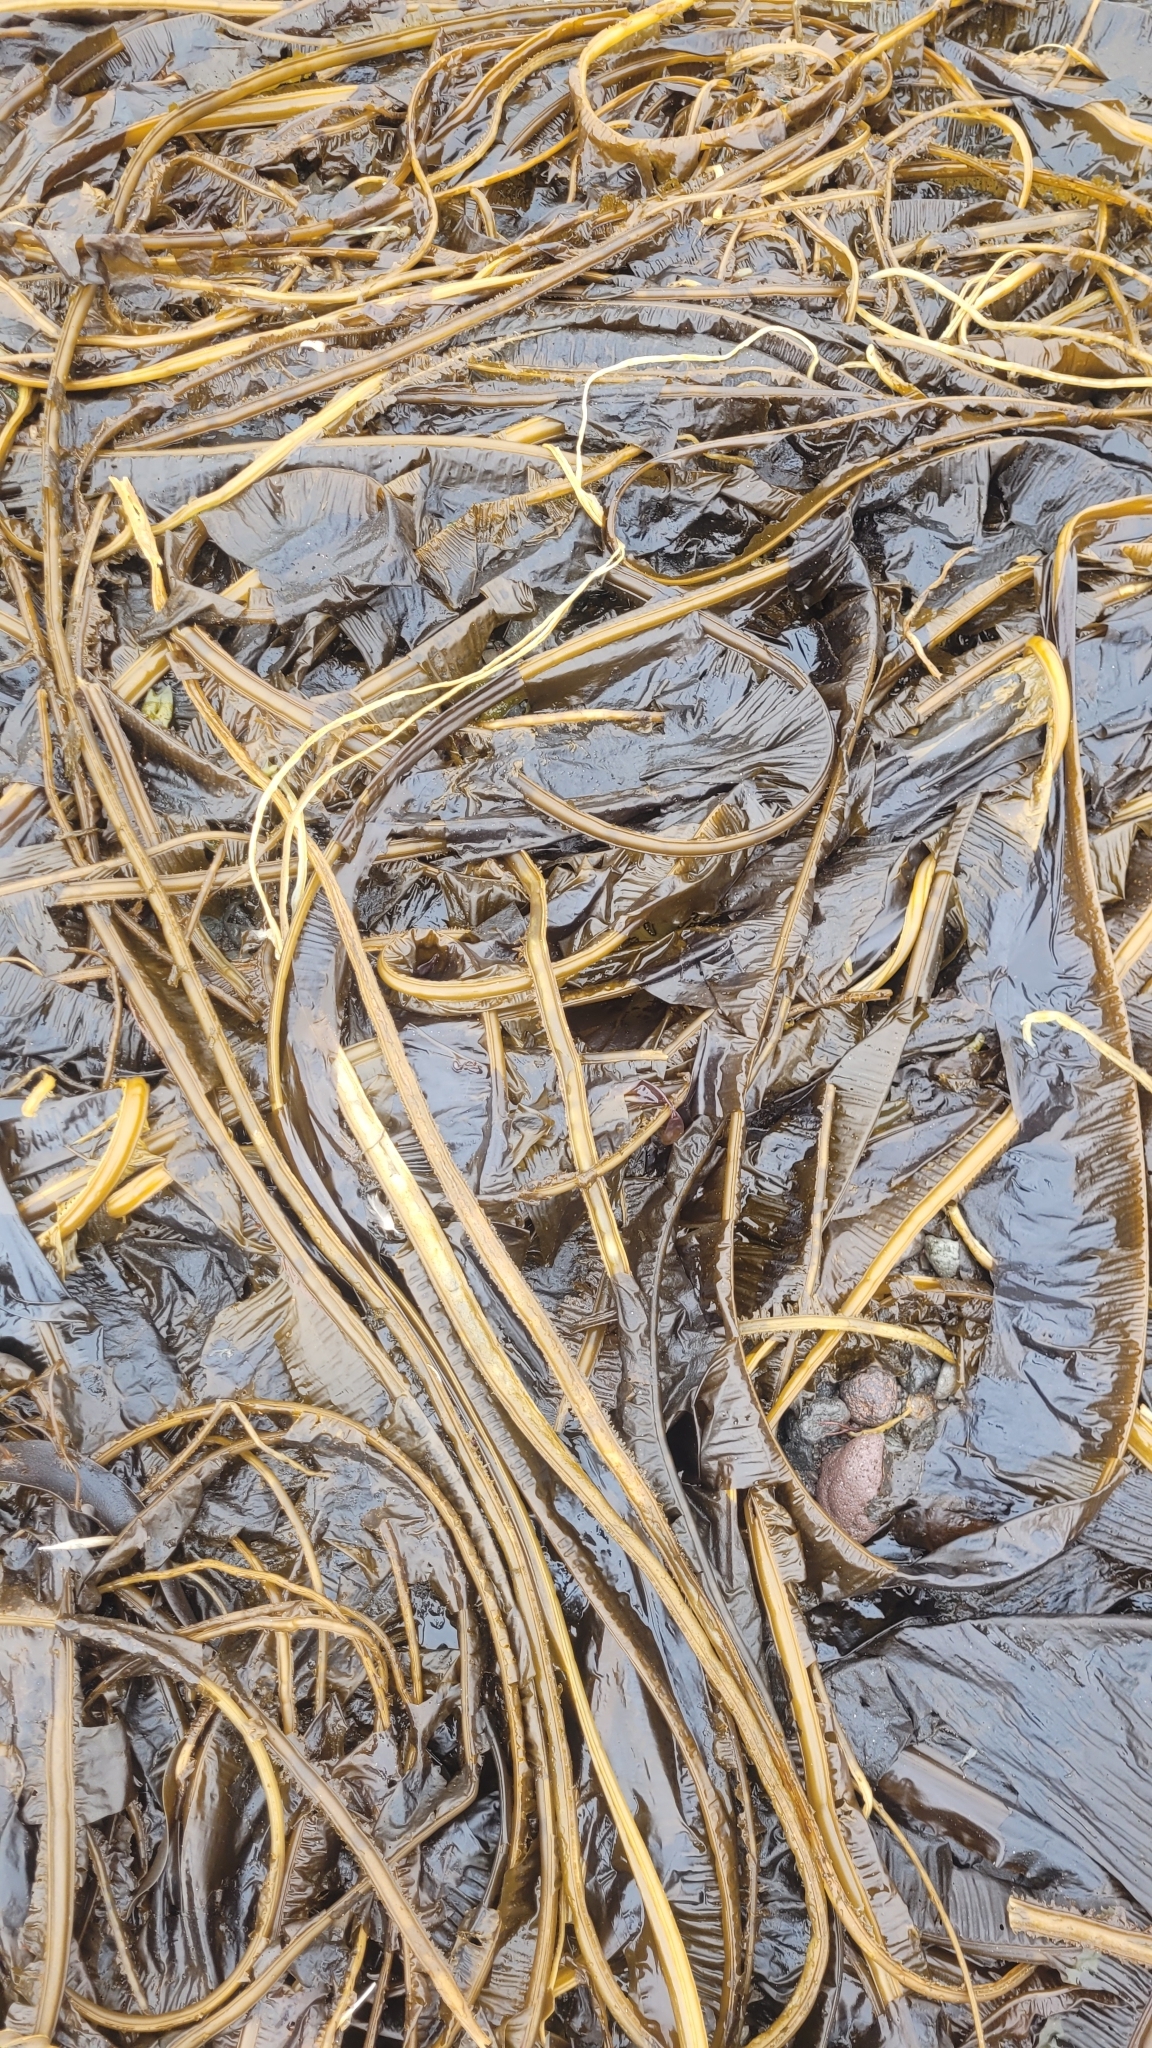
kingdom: Chromista
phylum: Ochrophyta
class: Phaeophyceae
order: Laminariales
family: Alariaceae
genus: Eualaria
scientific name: Eualaria
